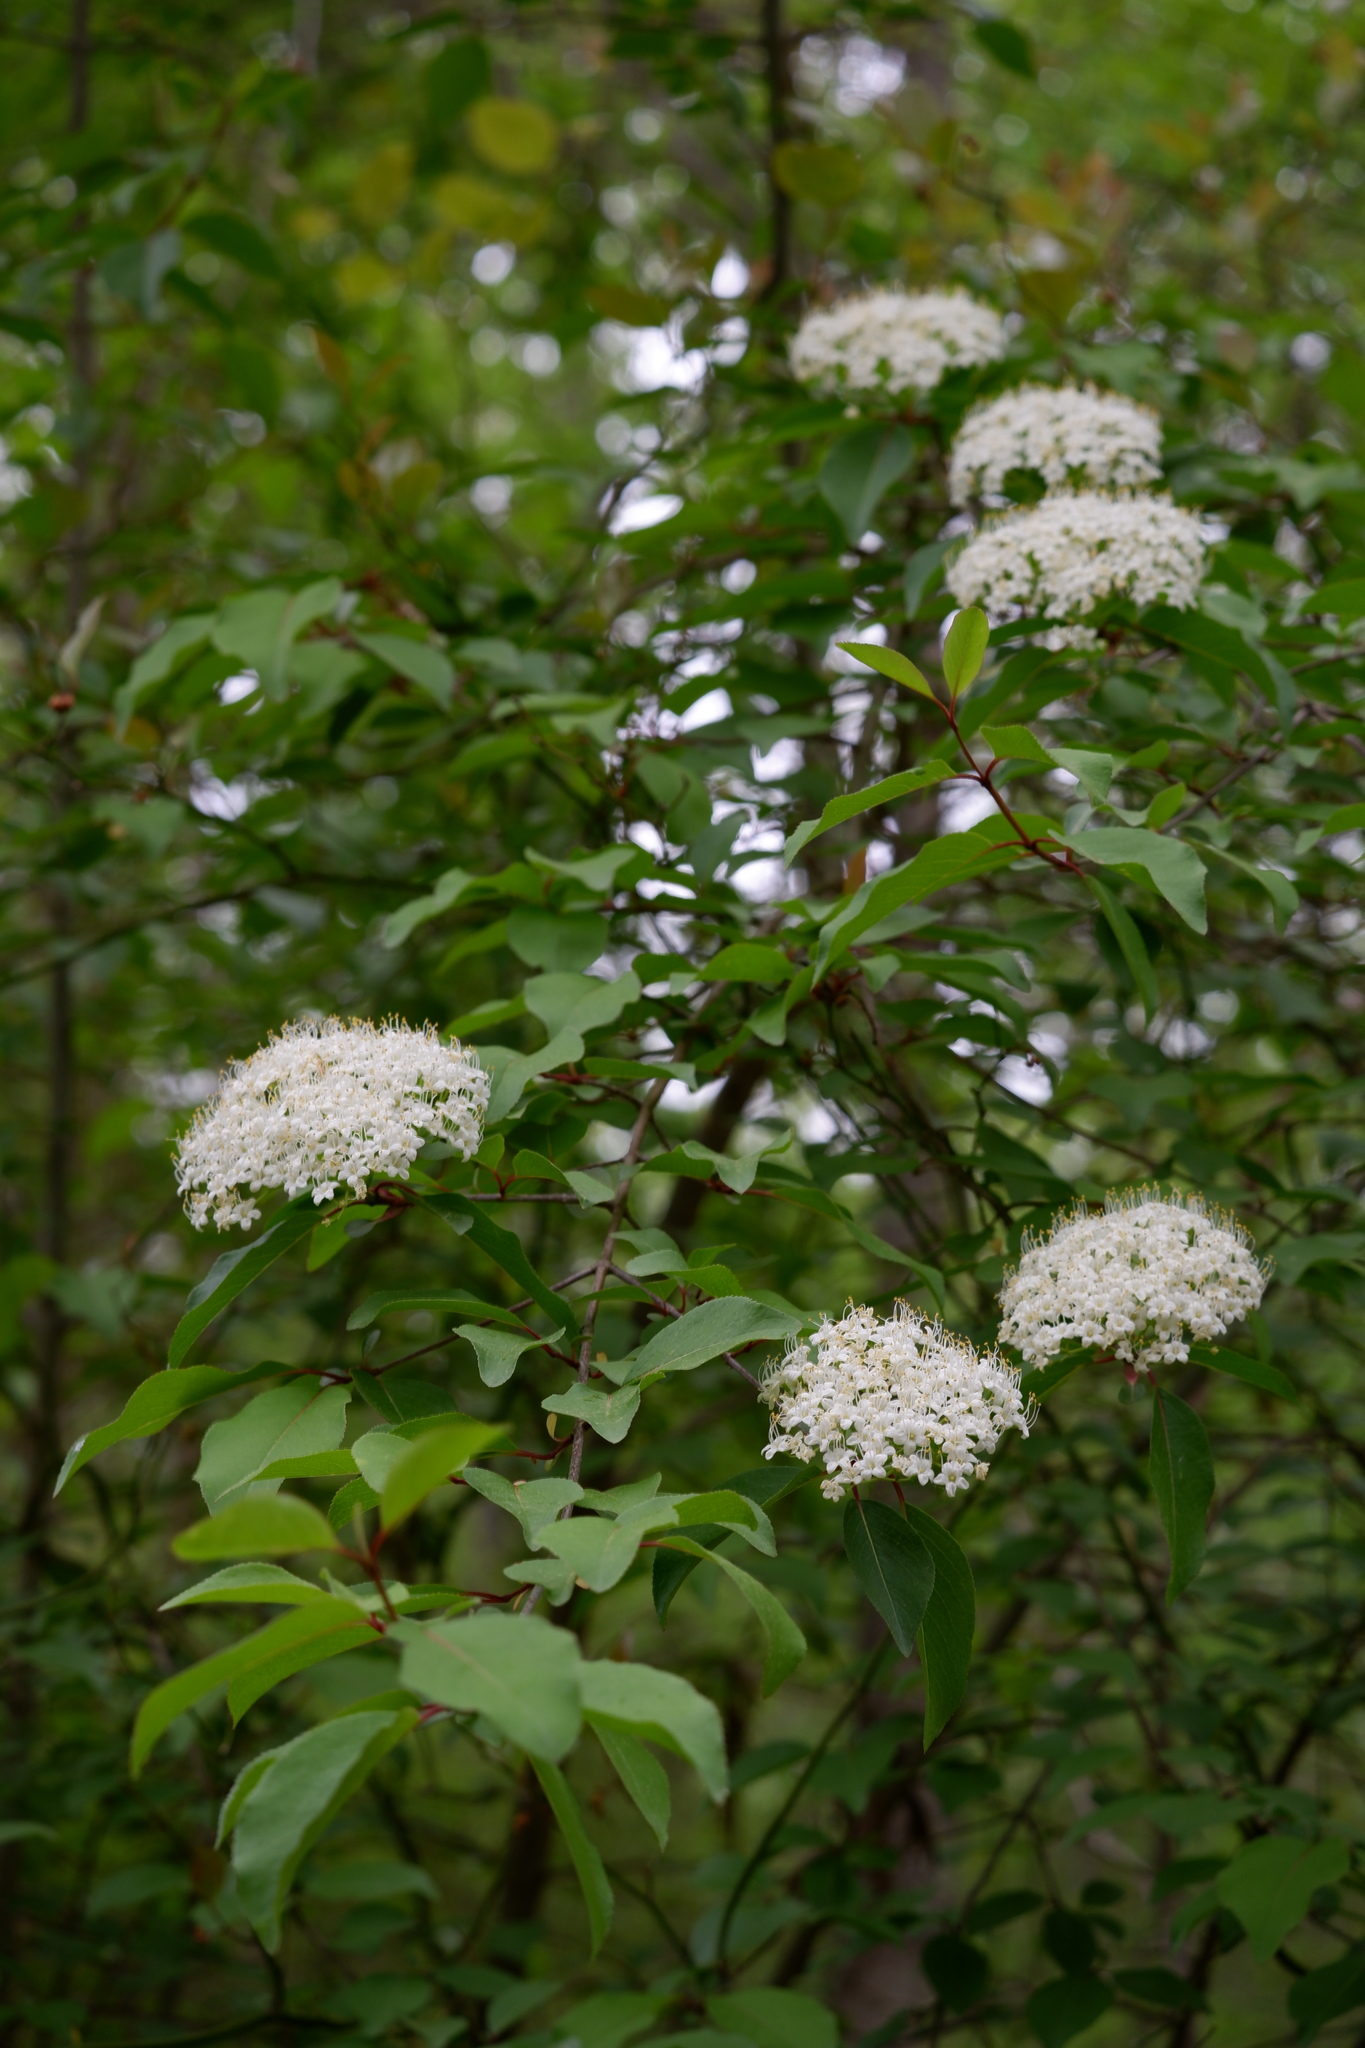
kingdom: Plantae
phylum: Tracheophyta
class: Magnoliopsida
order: Dipsacales
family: Viburnaceae
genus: Viburnum
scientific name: Viburnum prunifolium
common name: Black haw
